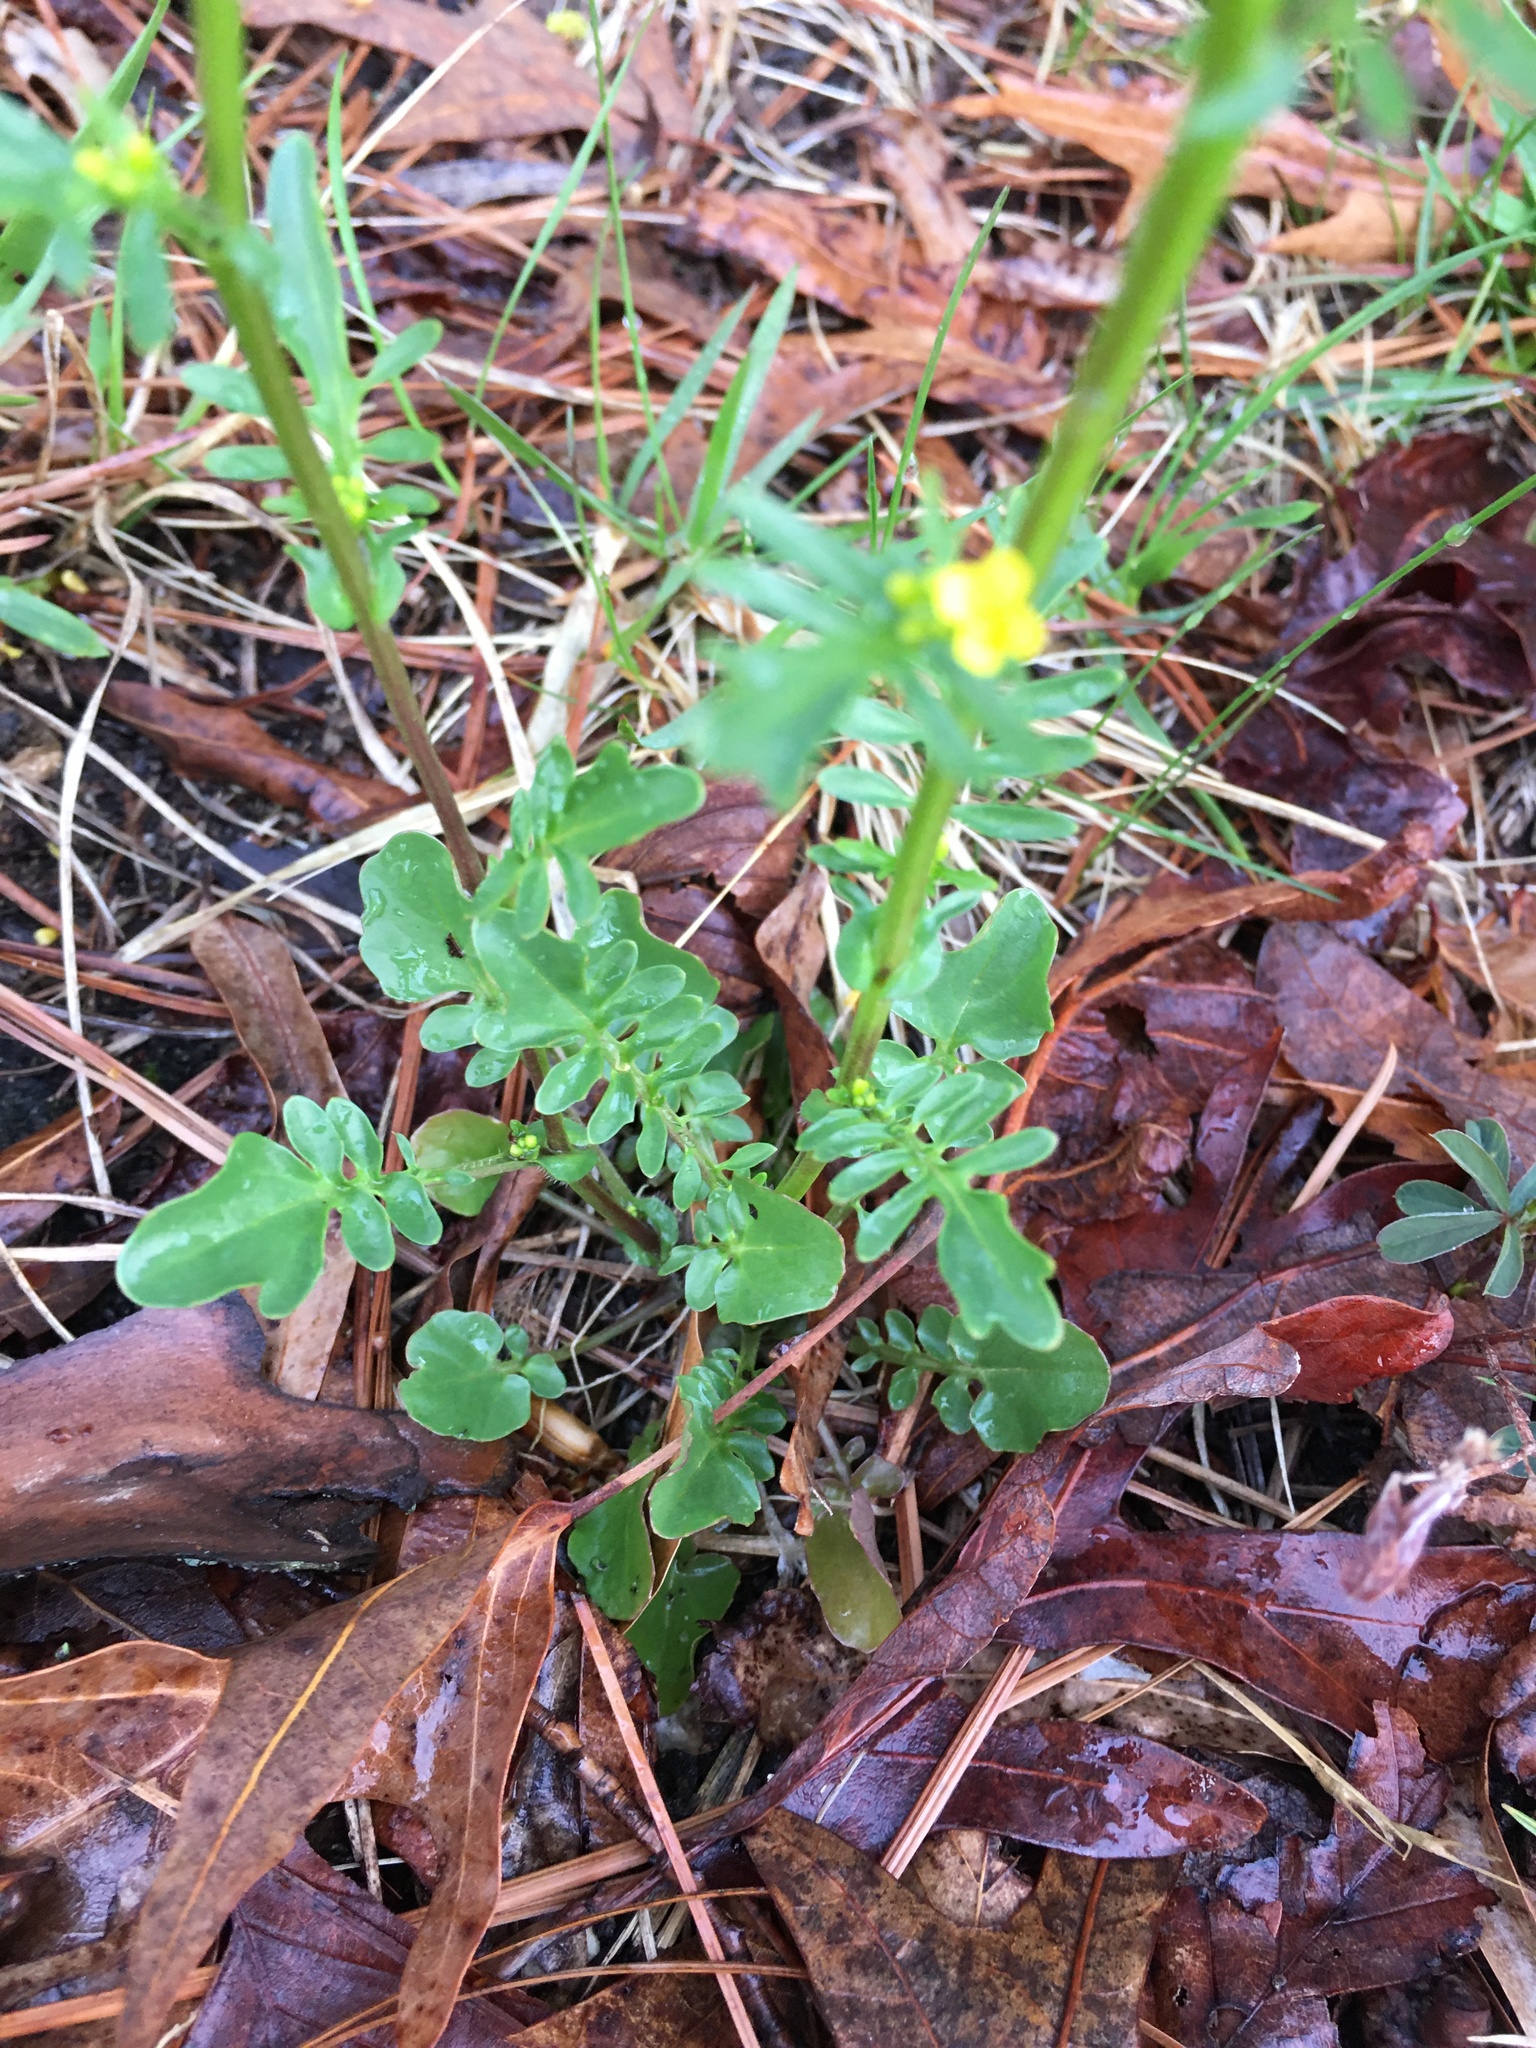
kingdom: Plantae
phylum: Tracheophyta
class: Magnoliopsida
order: Brassicales
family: Brassicaceae
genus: Barbarea
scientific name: Barbarea verna
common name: American cress
